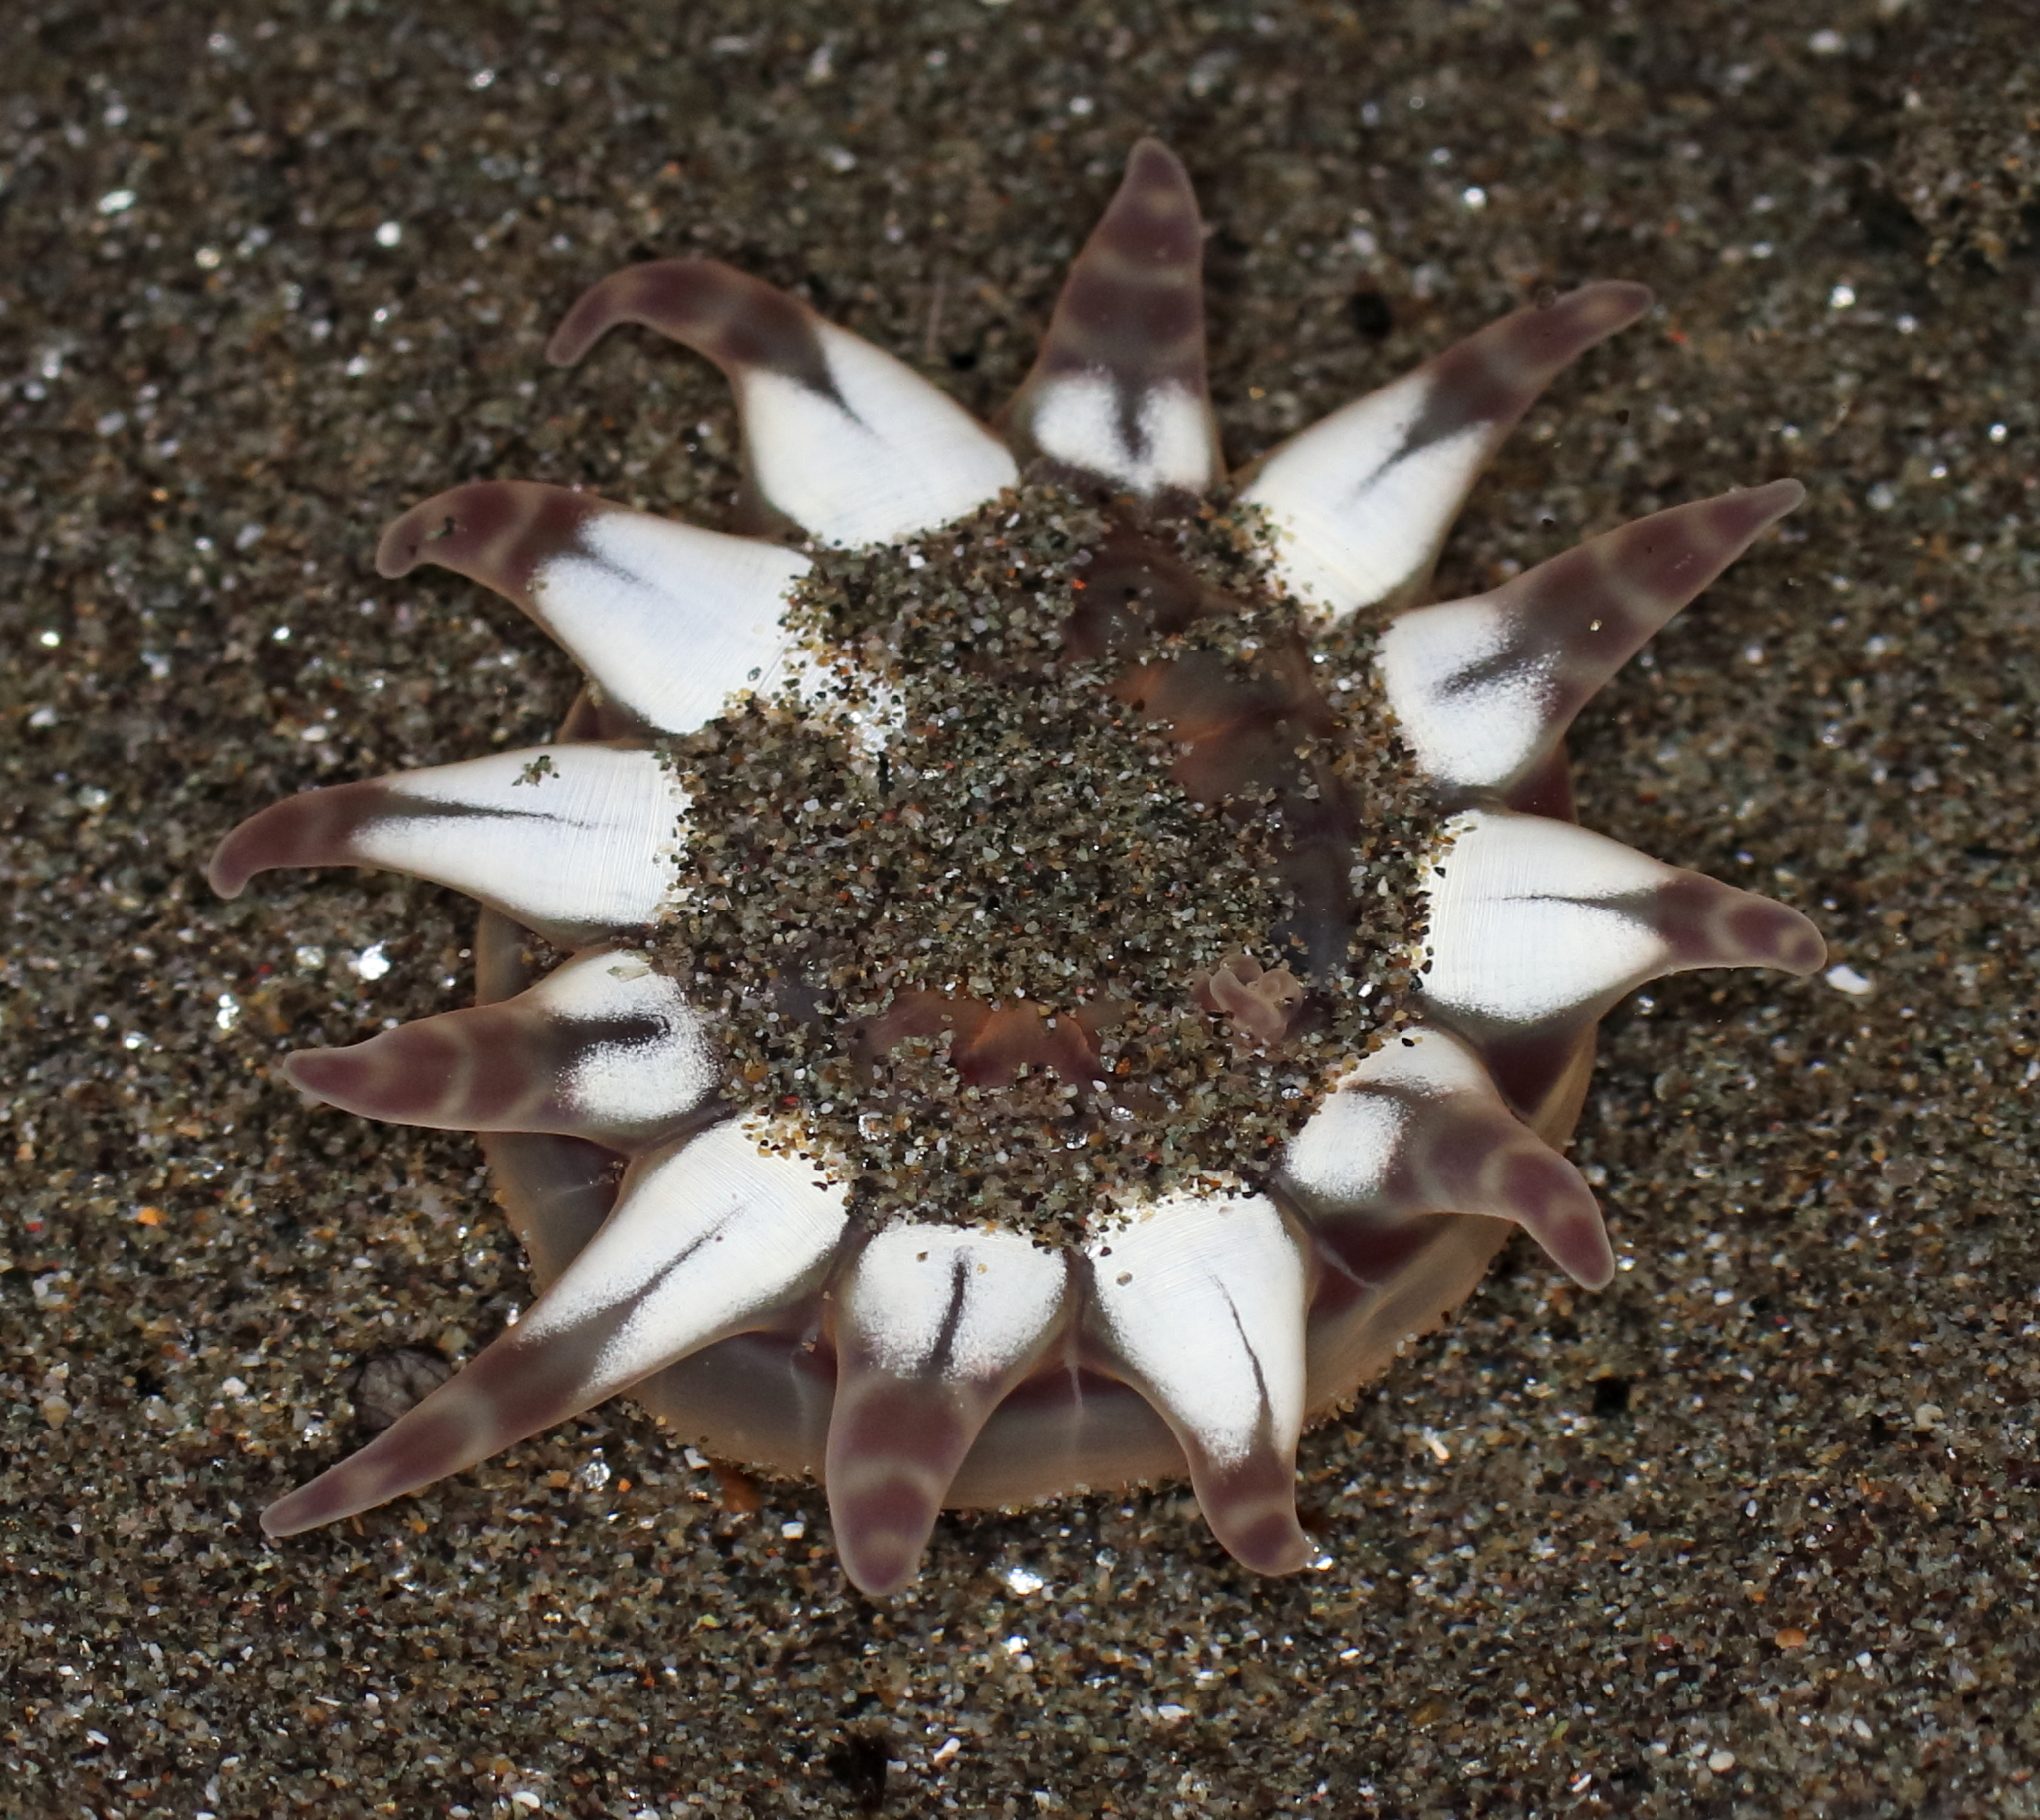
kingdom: Animalia
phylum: Cnidaria
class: Anthozoa
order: Actiniaria
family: Peachiidae
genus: Peachia
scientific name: Peachia quinquecapitata
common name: Twelve-tentacled parasitic anemone
